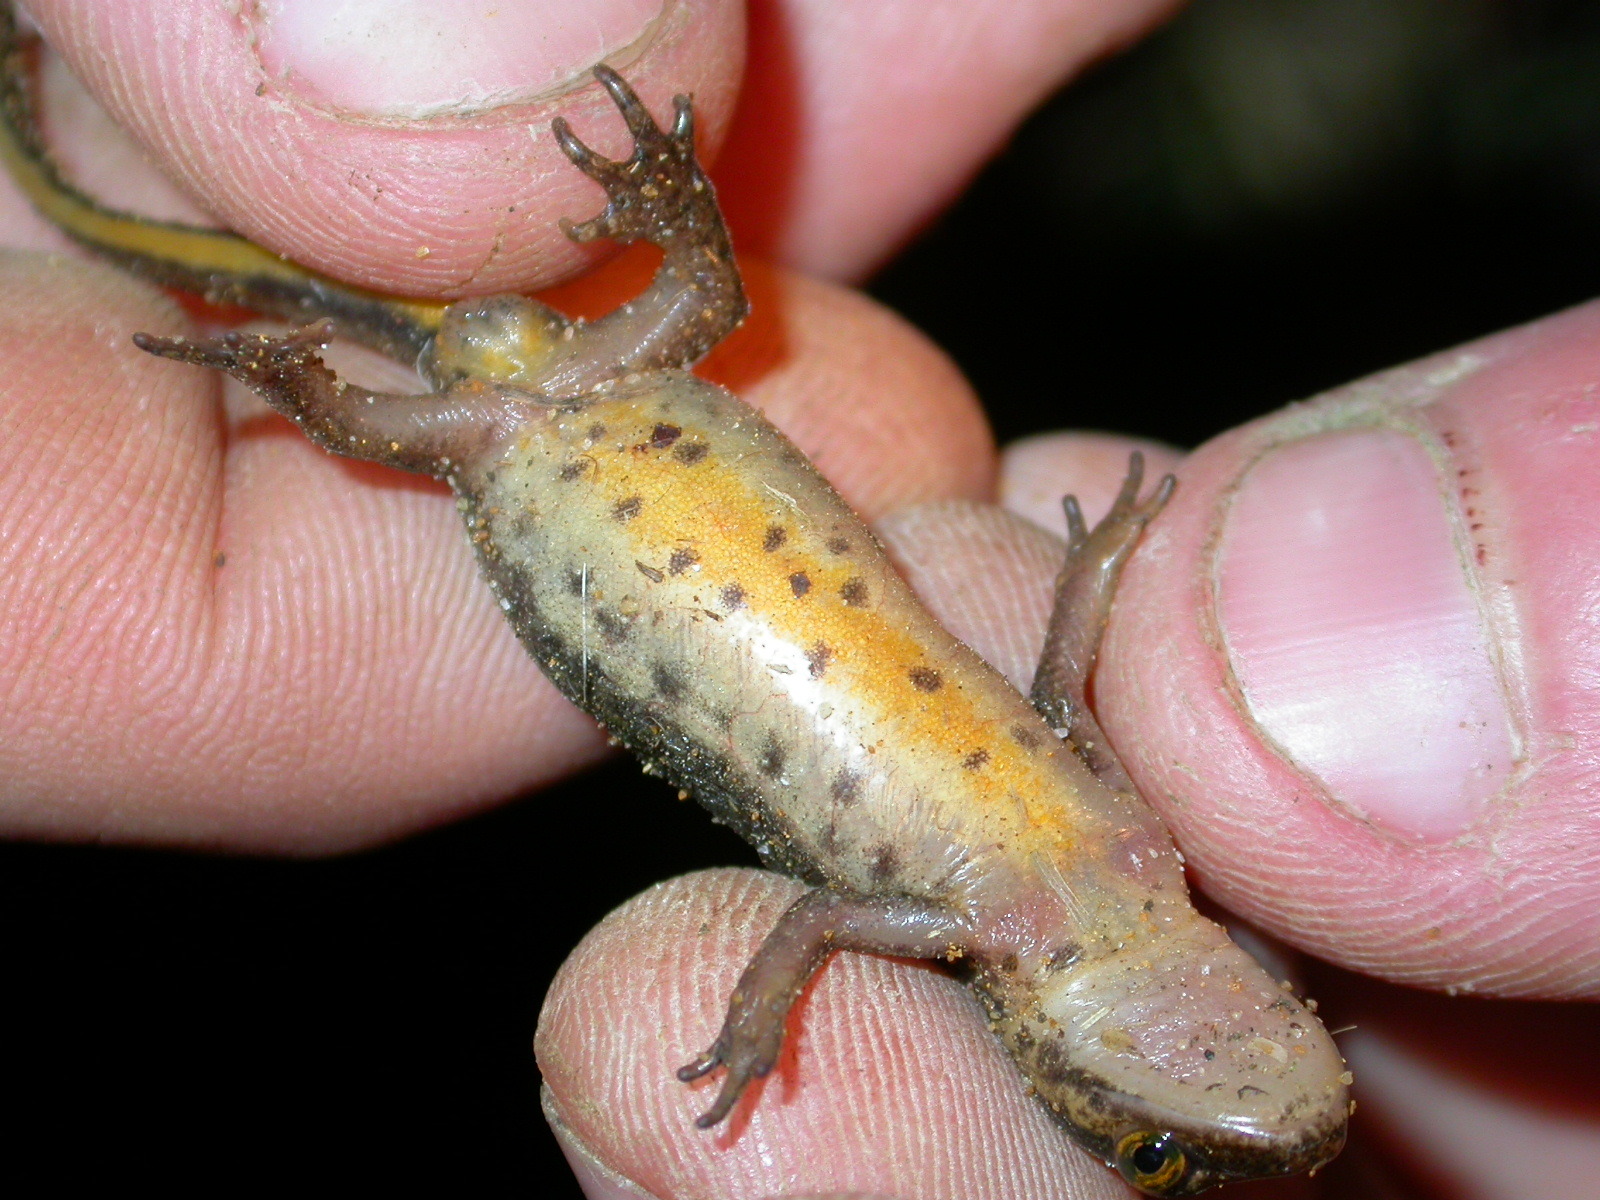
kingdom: Animalia
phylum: Chordata
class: Amphibia
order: Caudata
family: Salamandridae
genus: Lissotriton
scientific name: Lissotriton helveticus
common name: Palmate newt
